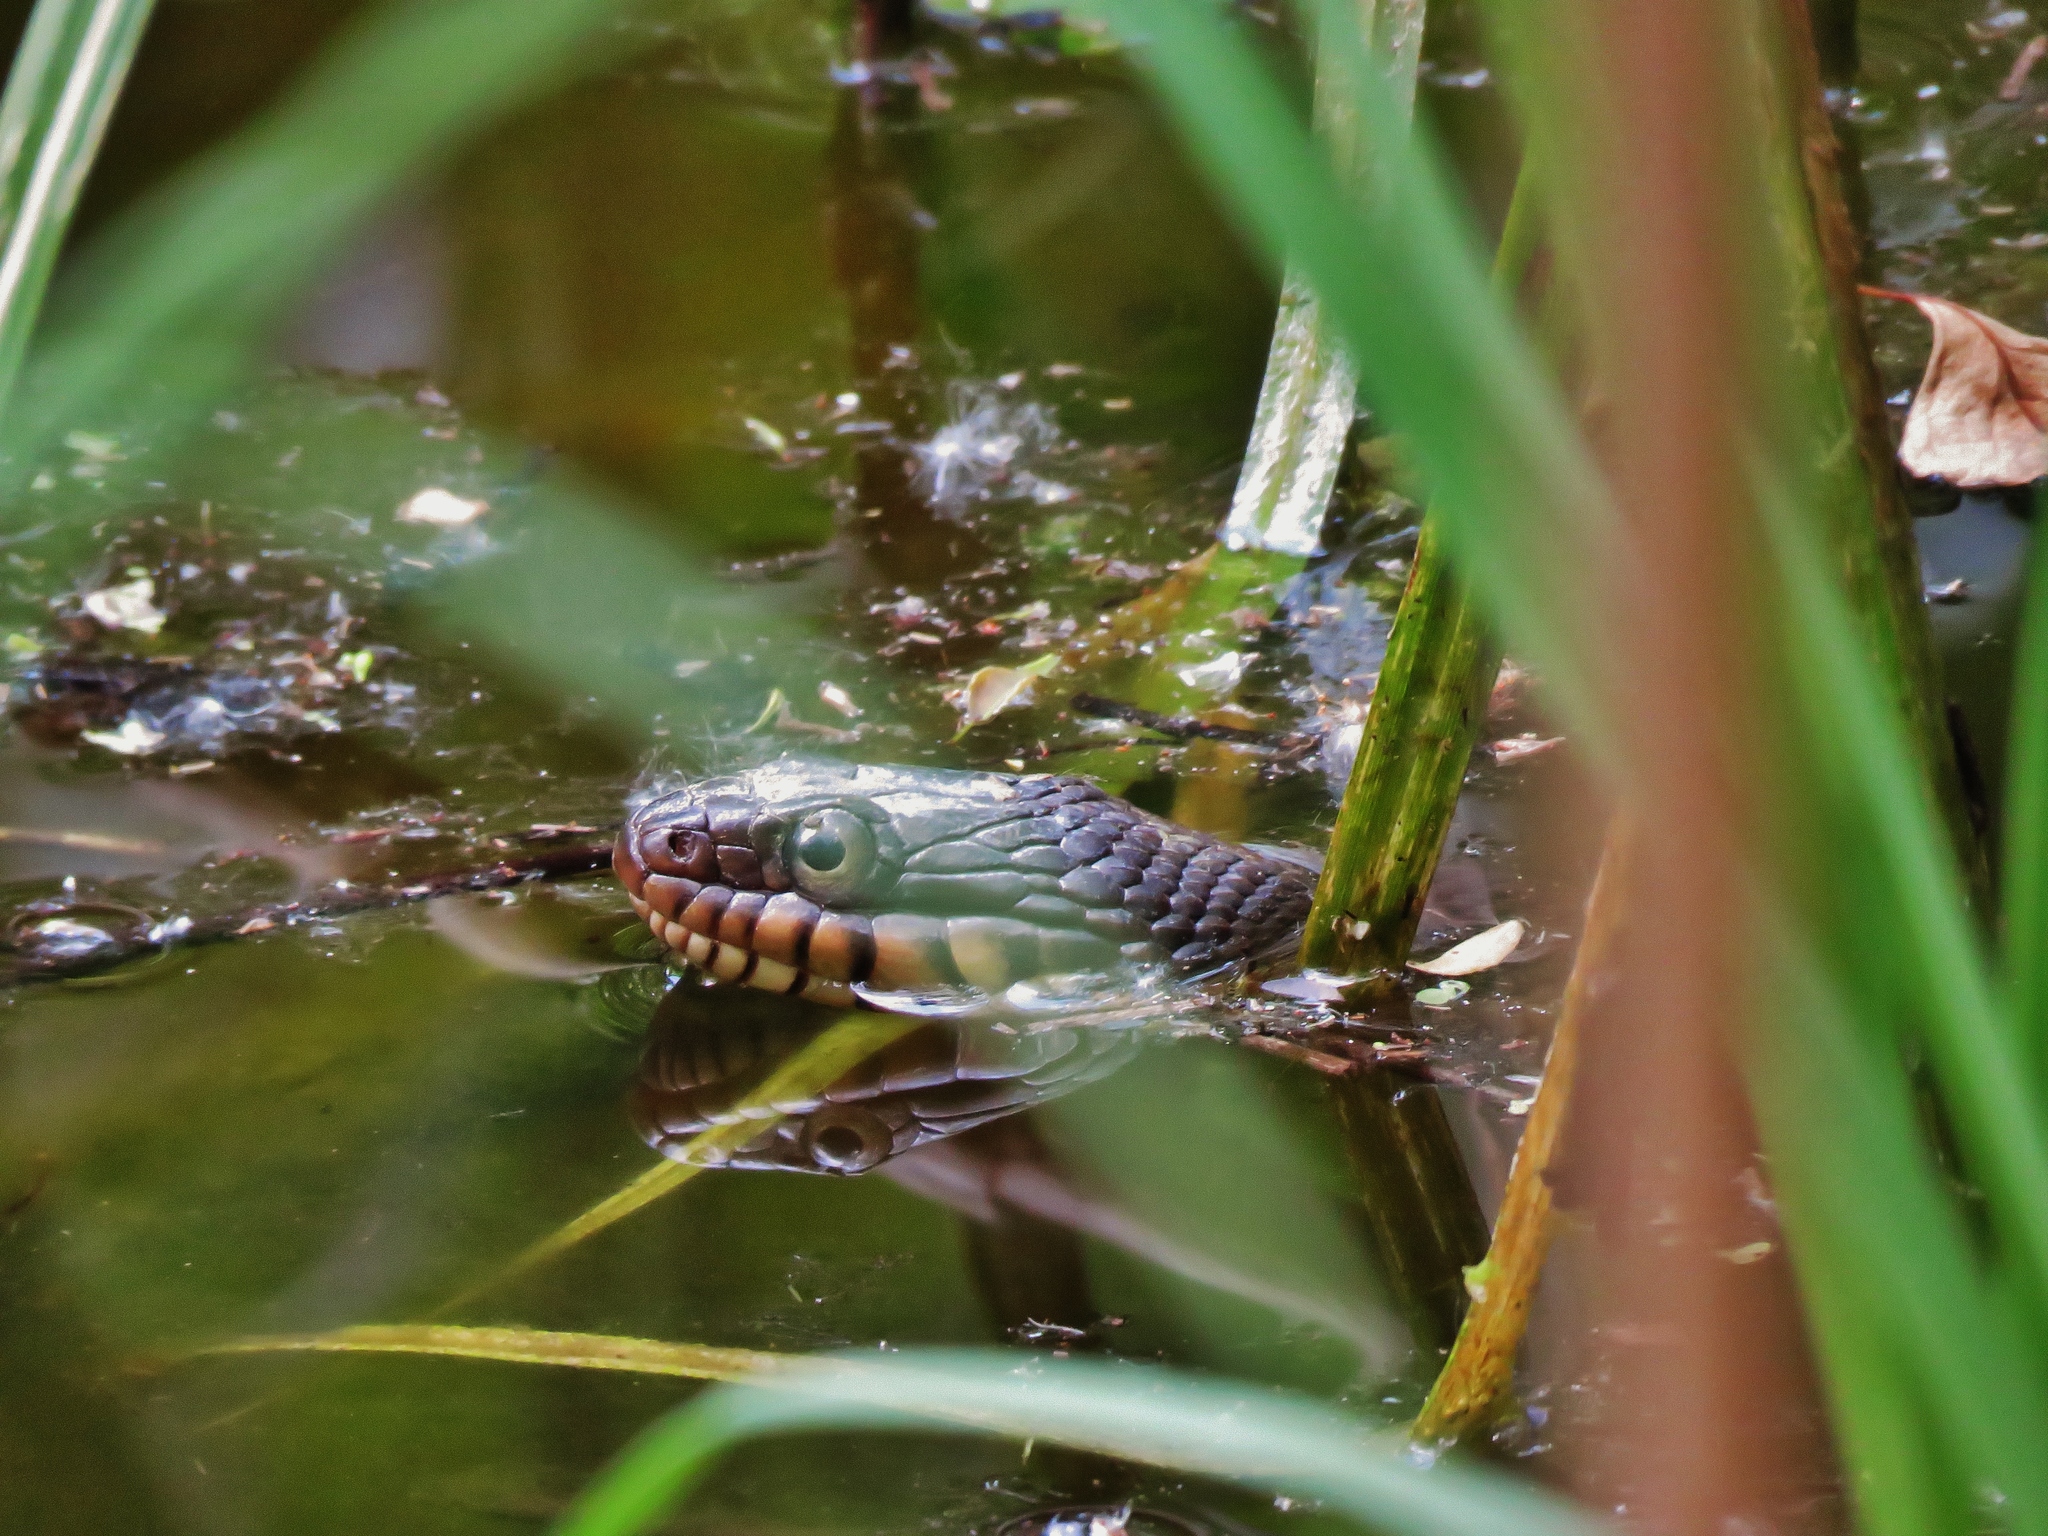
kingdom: Animalia
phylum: Chordata
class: Squamata
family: Colubridae
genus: Nerodia
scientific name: Nerodia erythrogaster
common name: Plainbelly water snake
